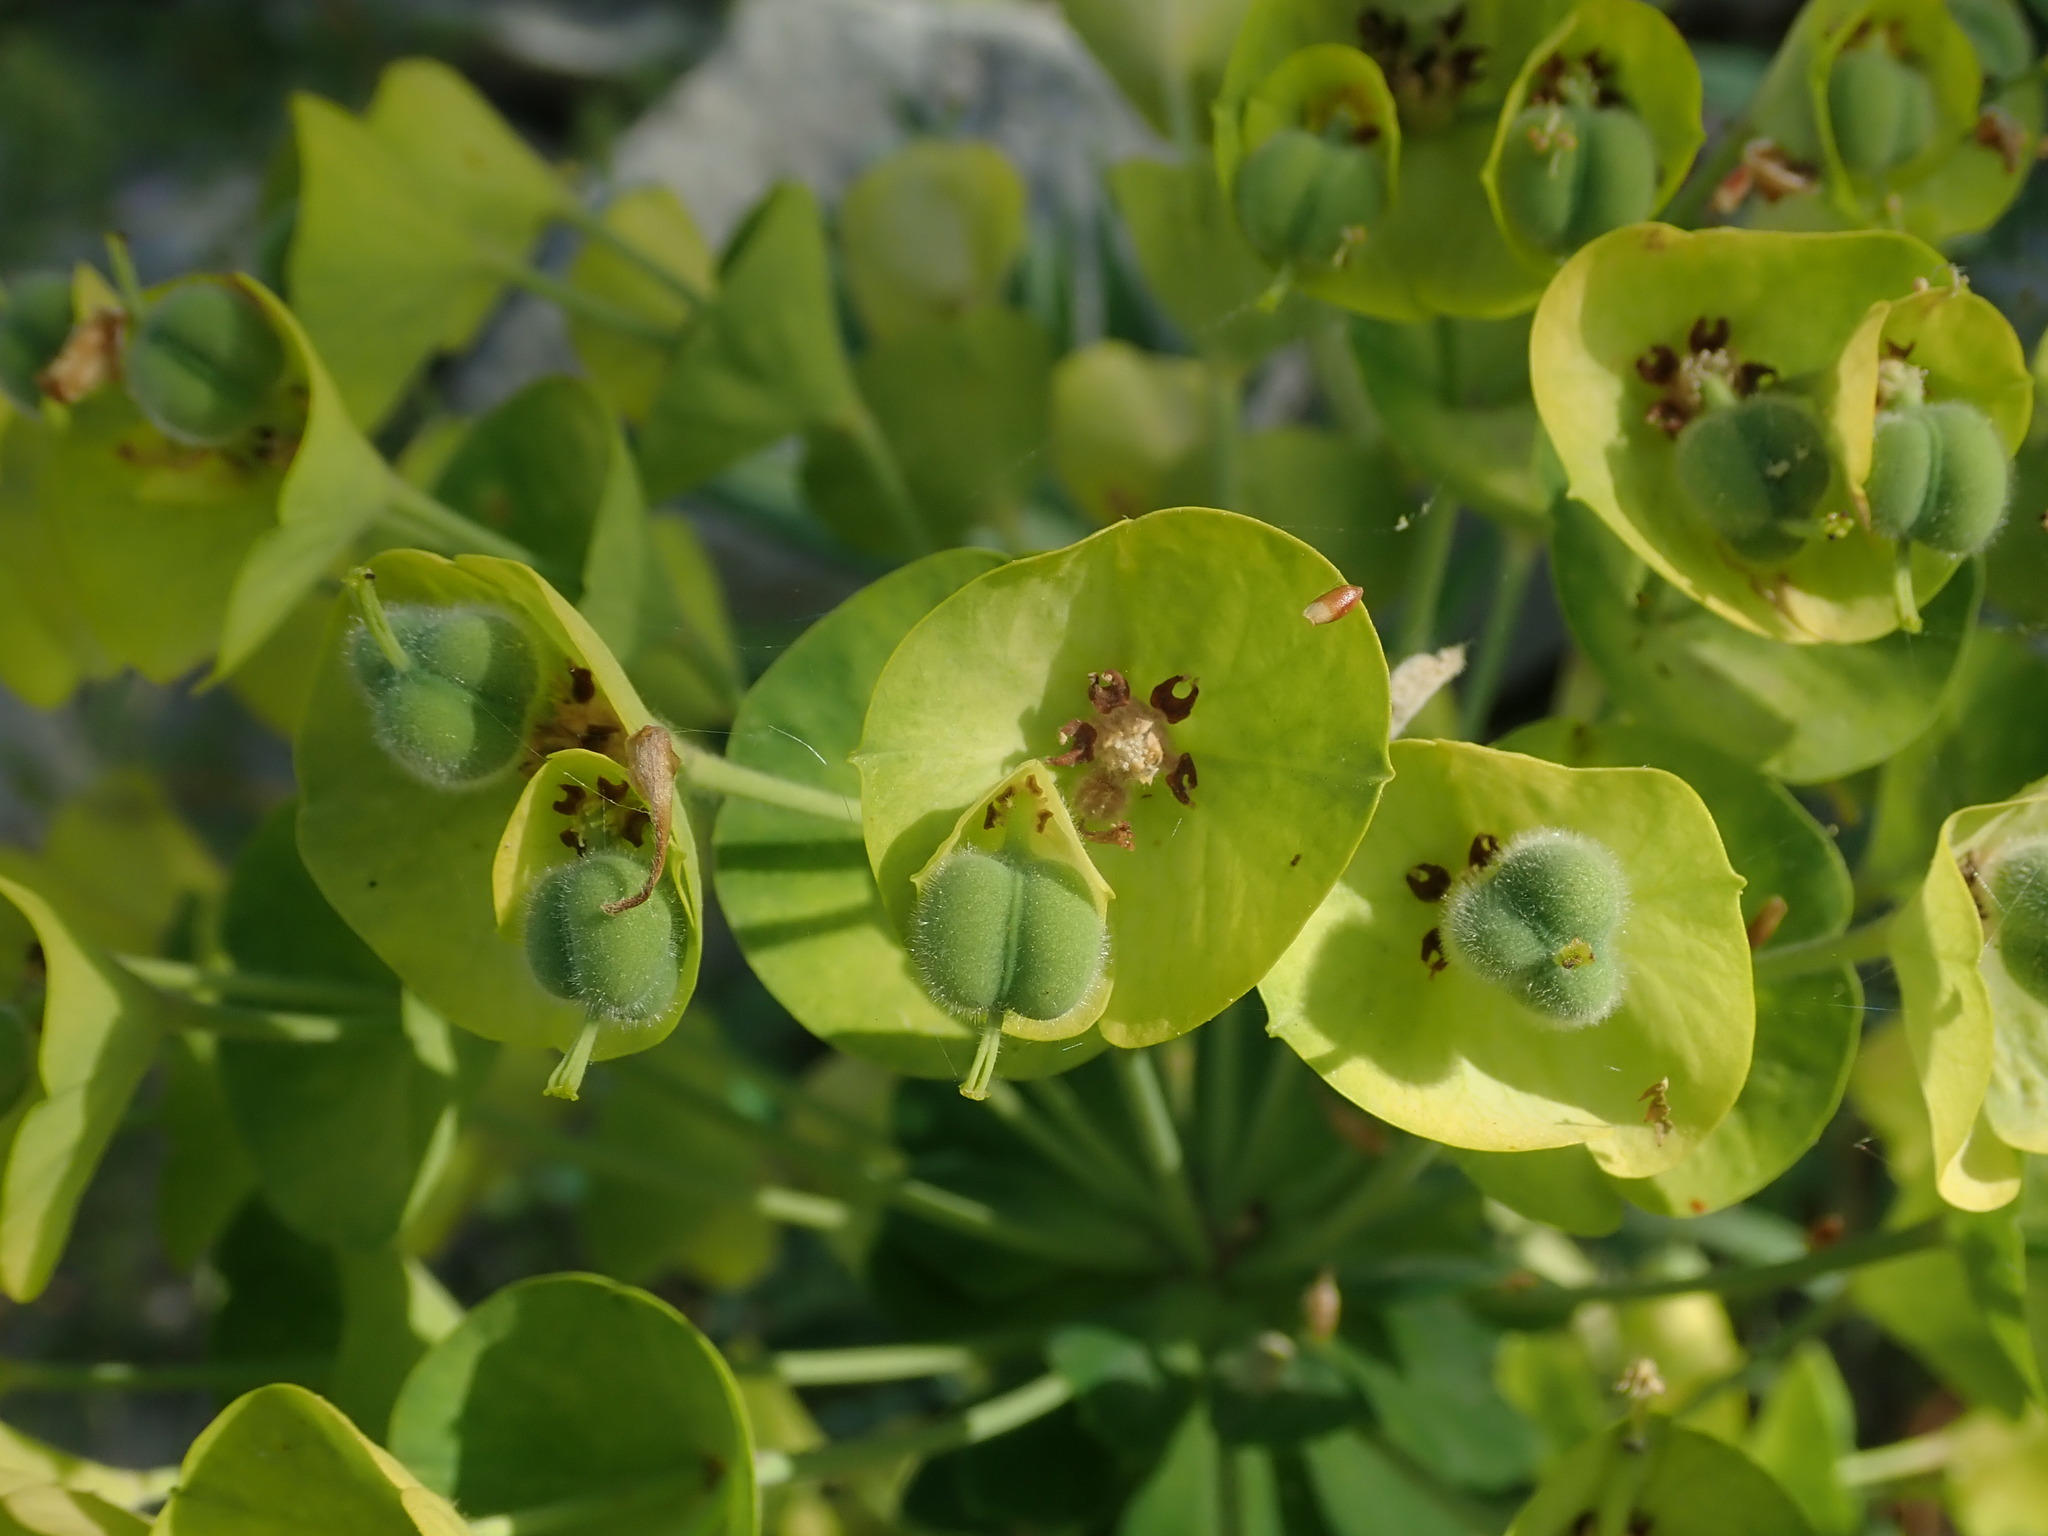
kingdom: Plantae
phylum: Tracheophyta
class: Magnoliopsida
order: Malpighiales
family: Euphorbiaceae
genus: Euphorbia
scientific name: Euphorbia characias
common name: Mediterranean spurge
